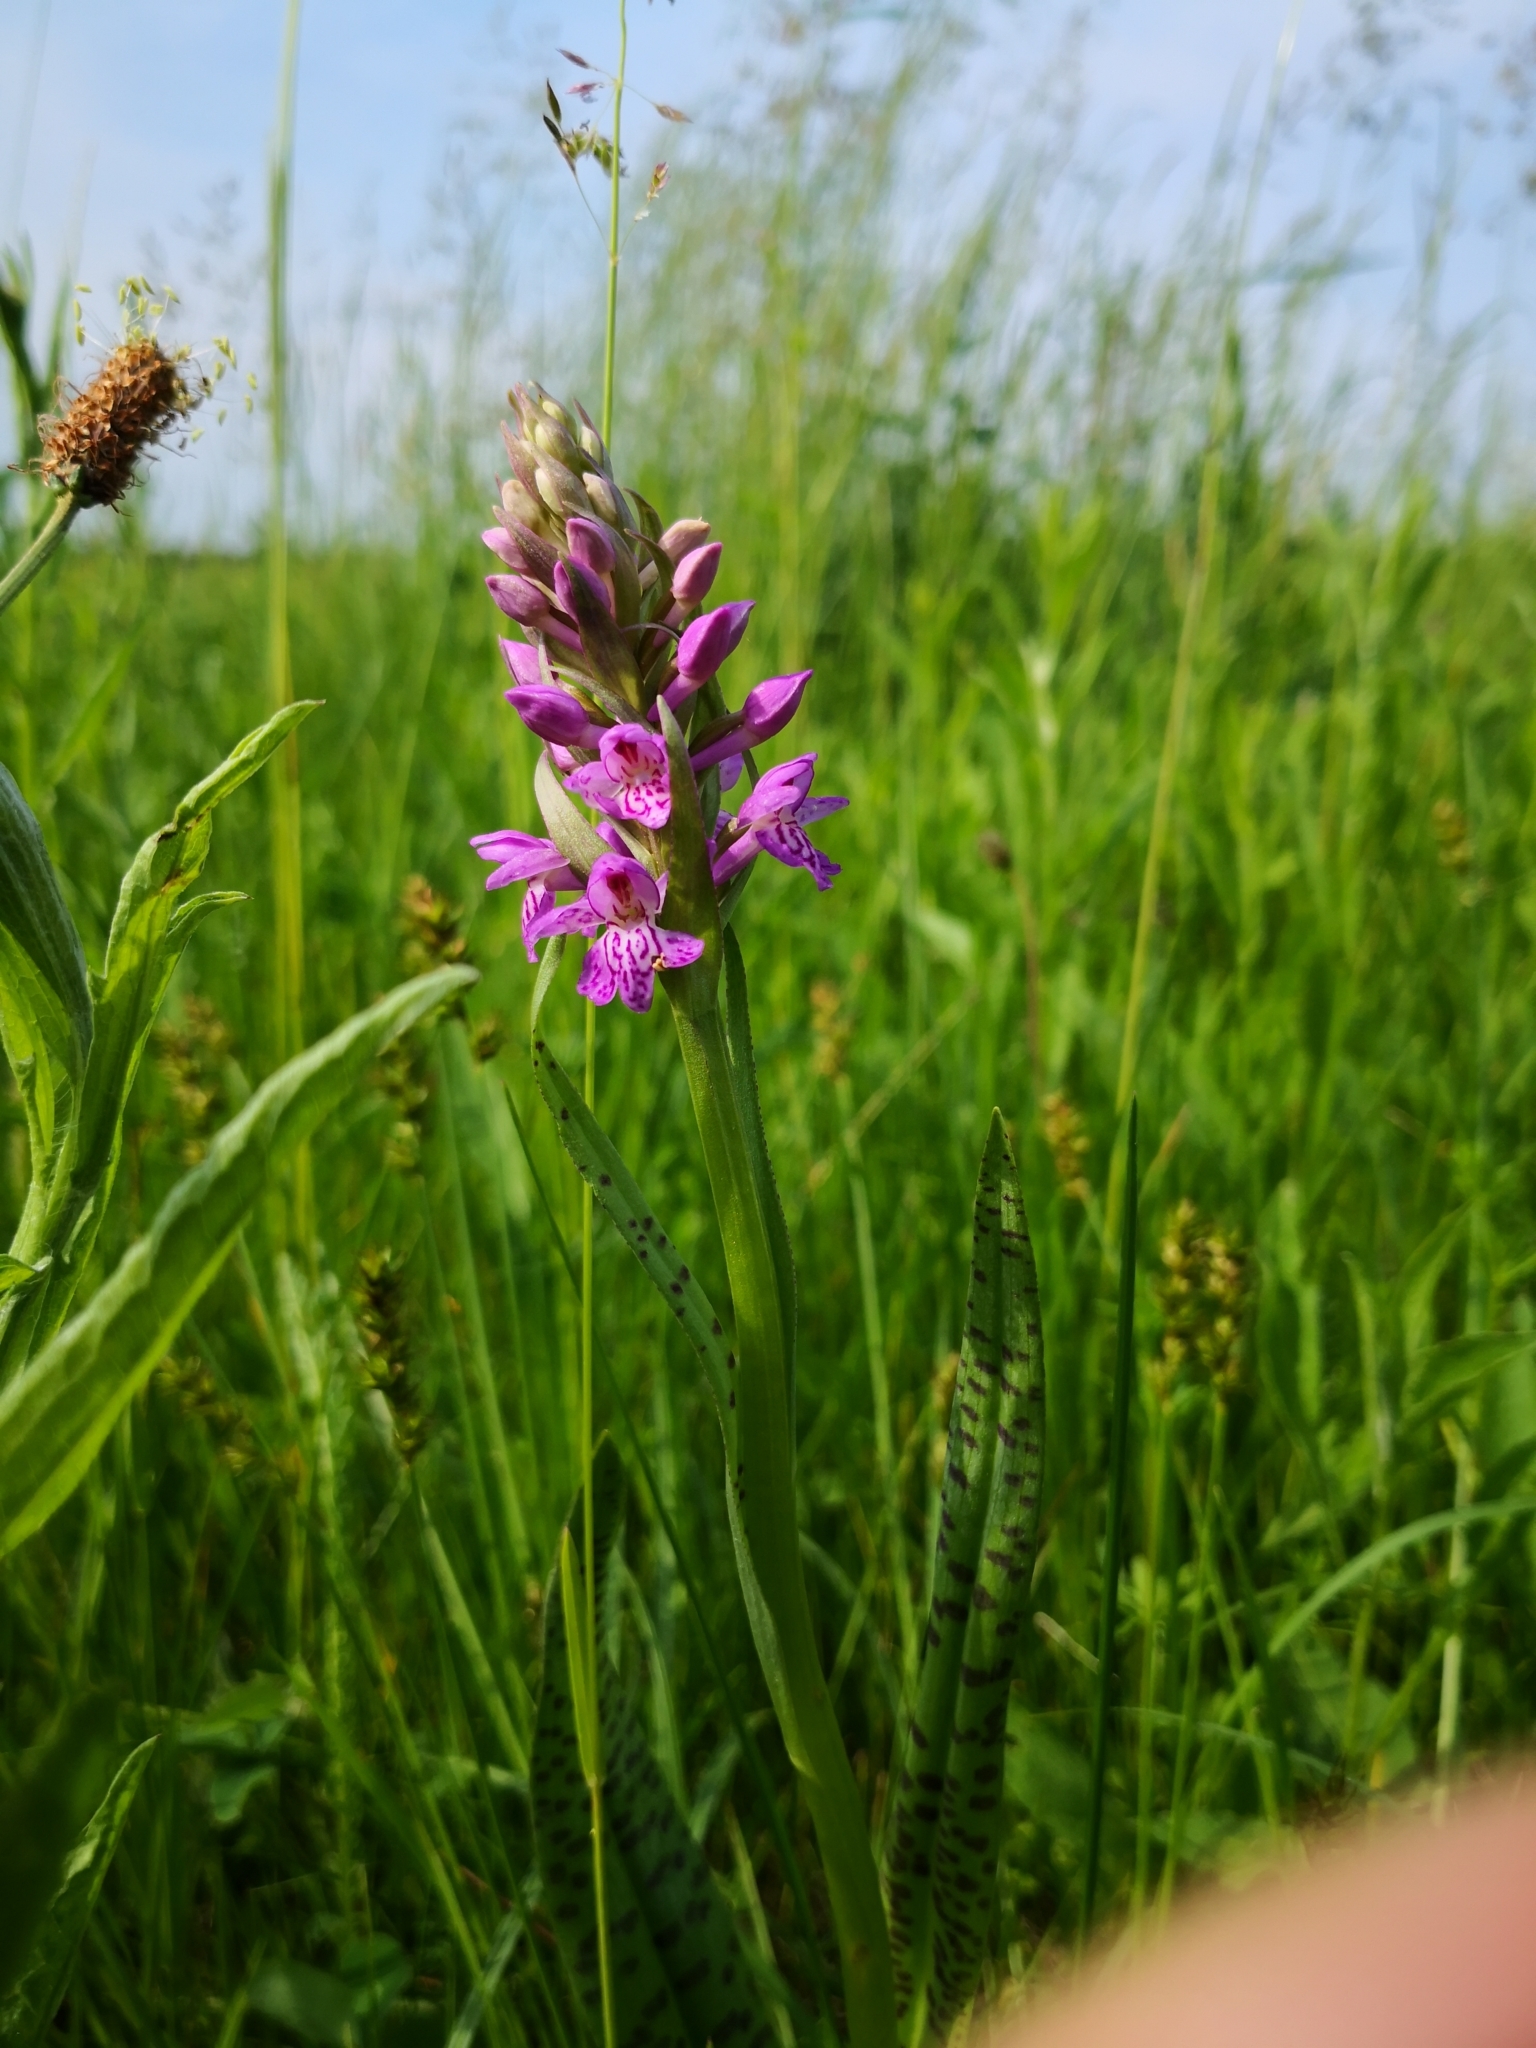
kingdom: Plantae
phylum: Tracheophyta
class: Liliopsida
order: Asparagales
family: Orchidaceae
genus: Dactylorhiza
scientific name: Dactylorhiza majalis
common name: Marsh orchid
